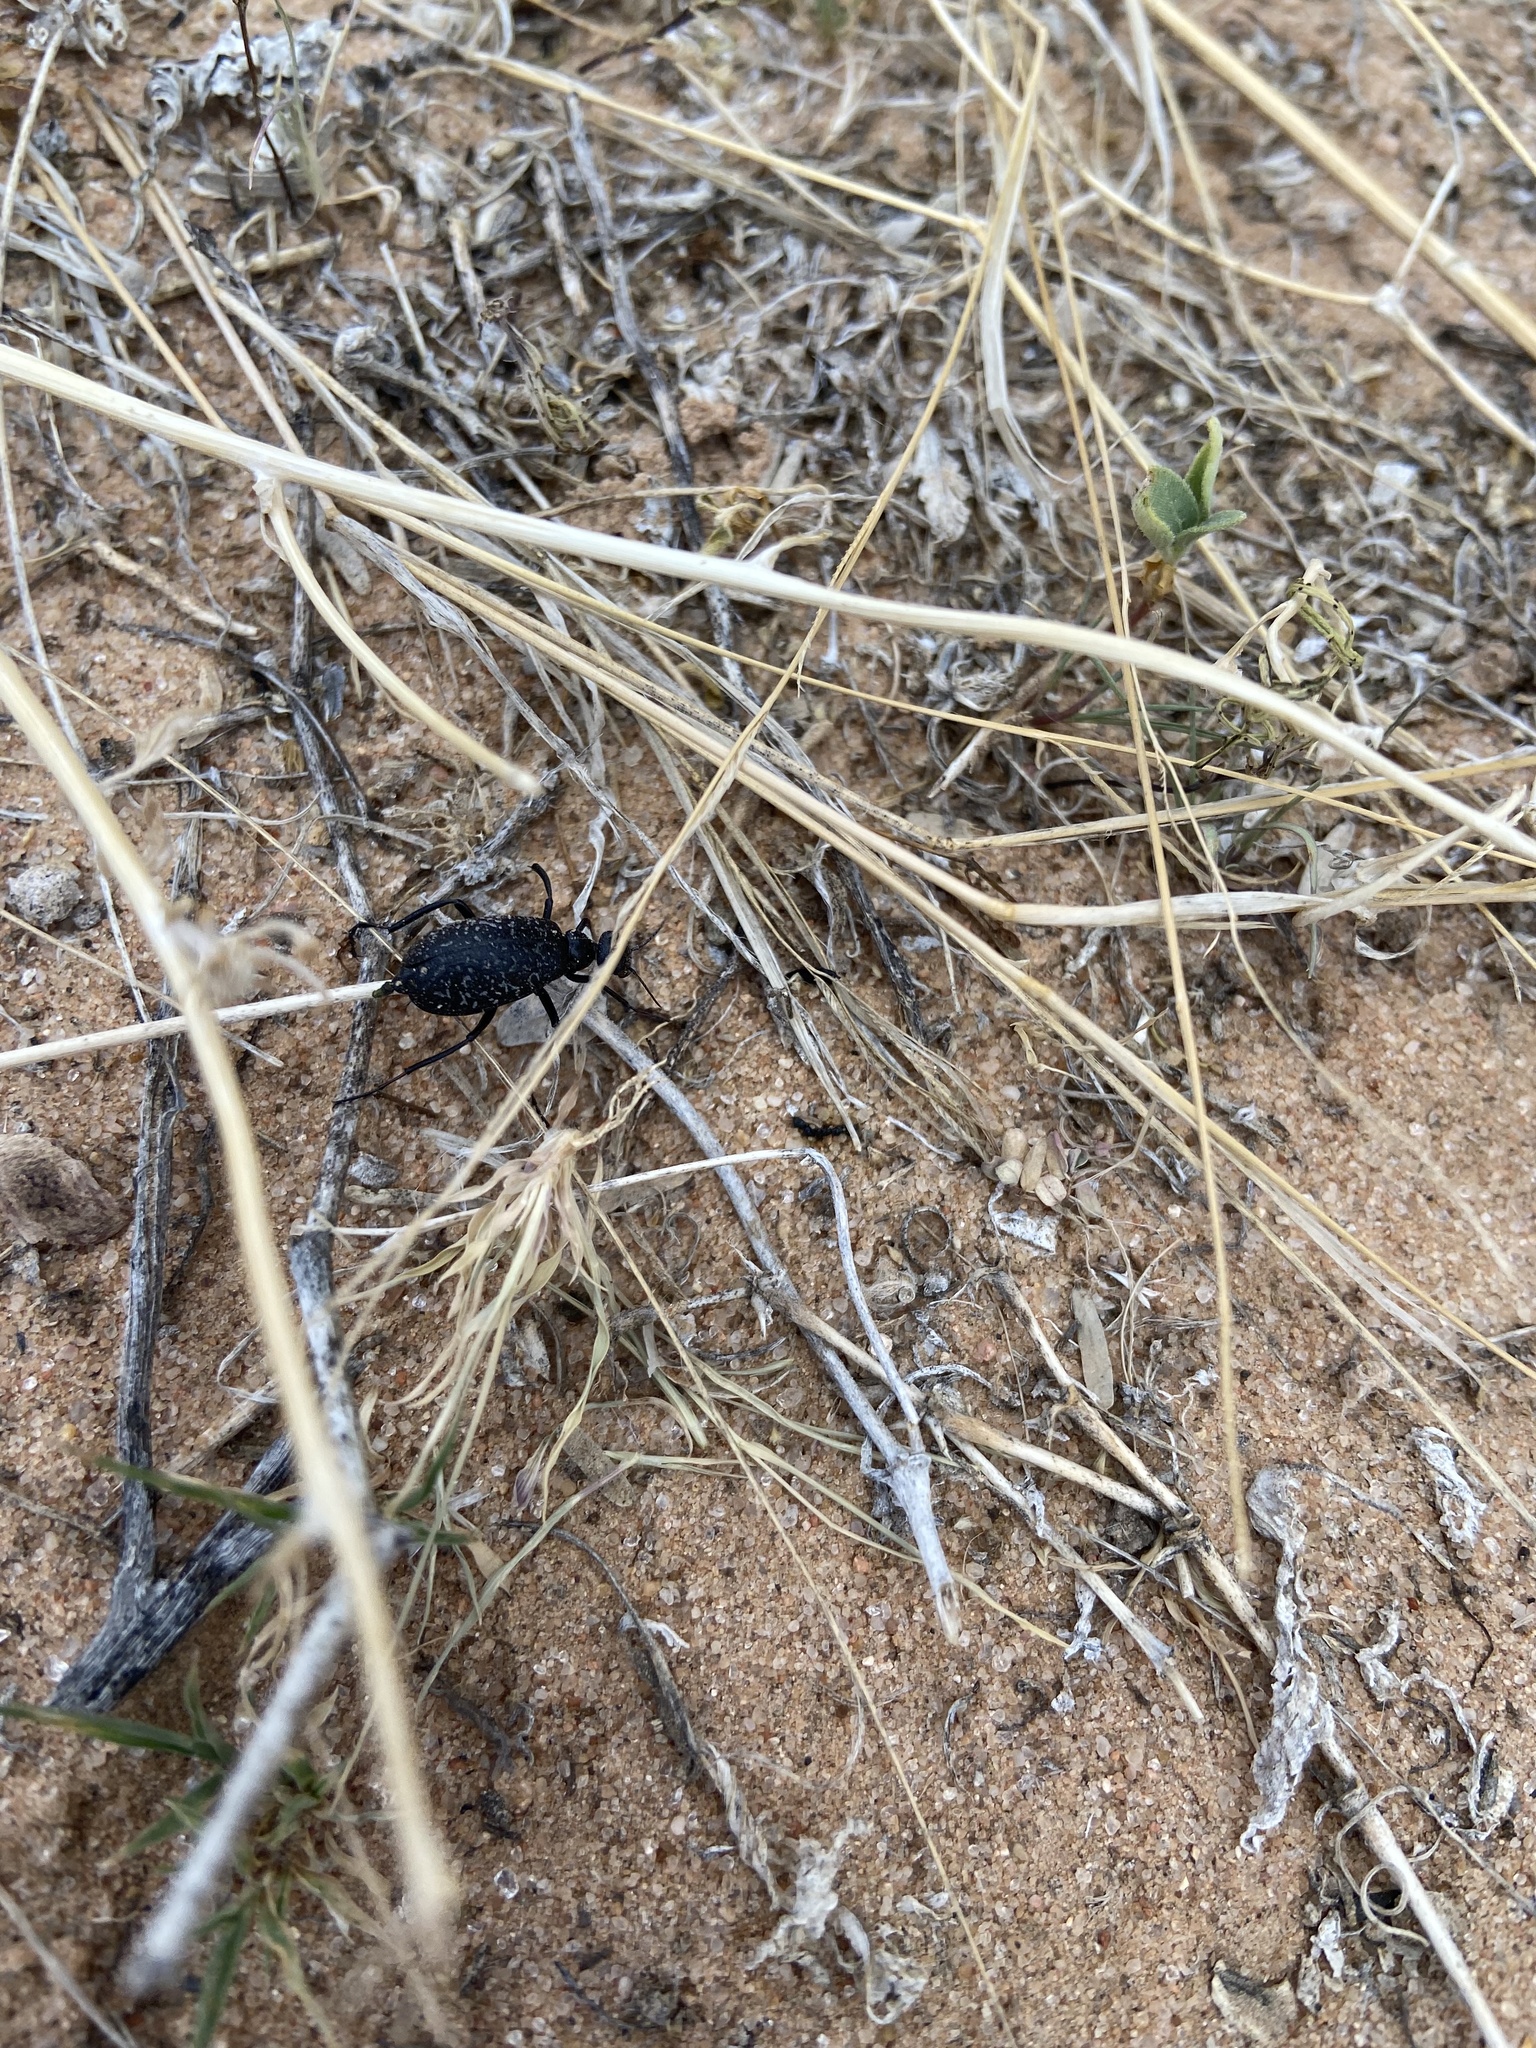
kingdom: Animalia
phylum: Arthropoda
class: Insecta
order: Coleoptera
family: Meloidae
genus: Phodaga
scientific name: Phodaga marmorata
